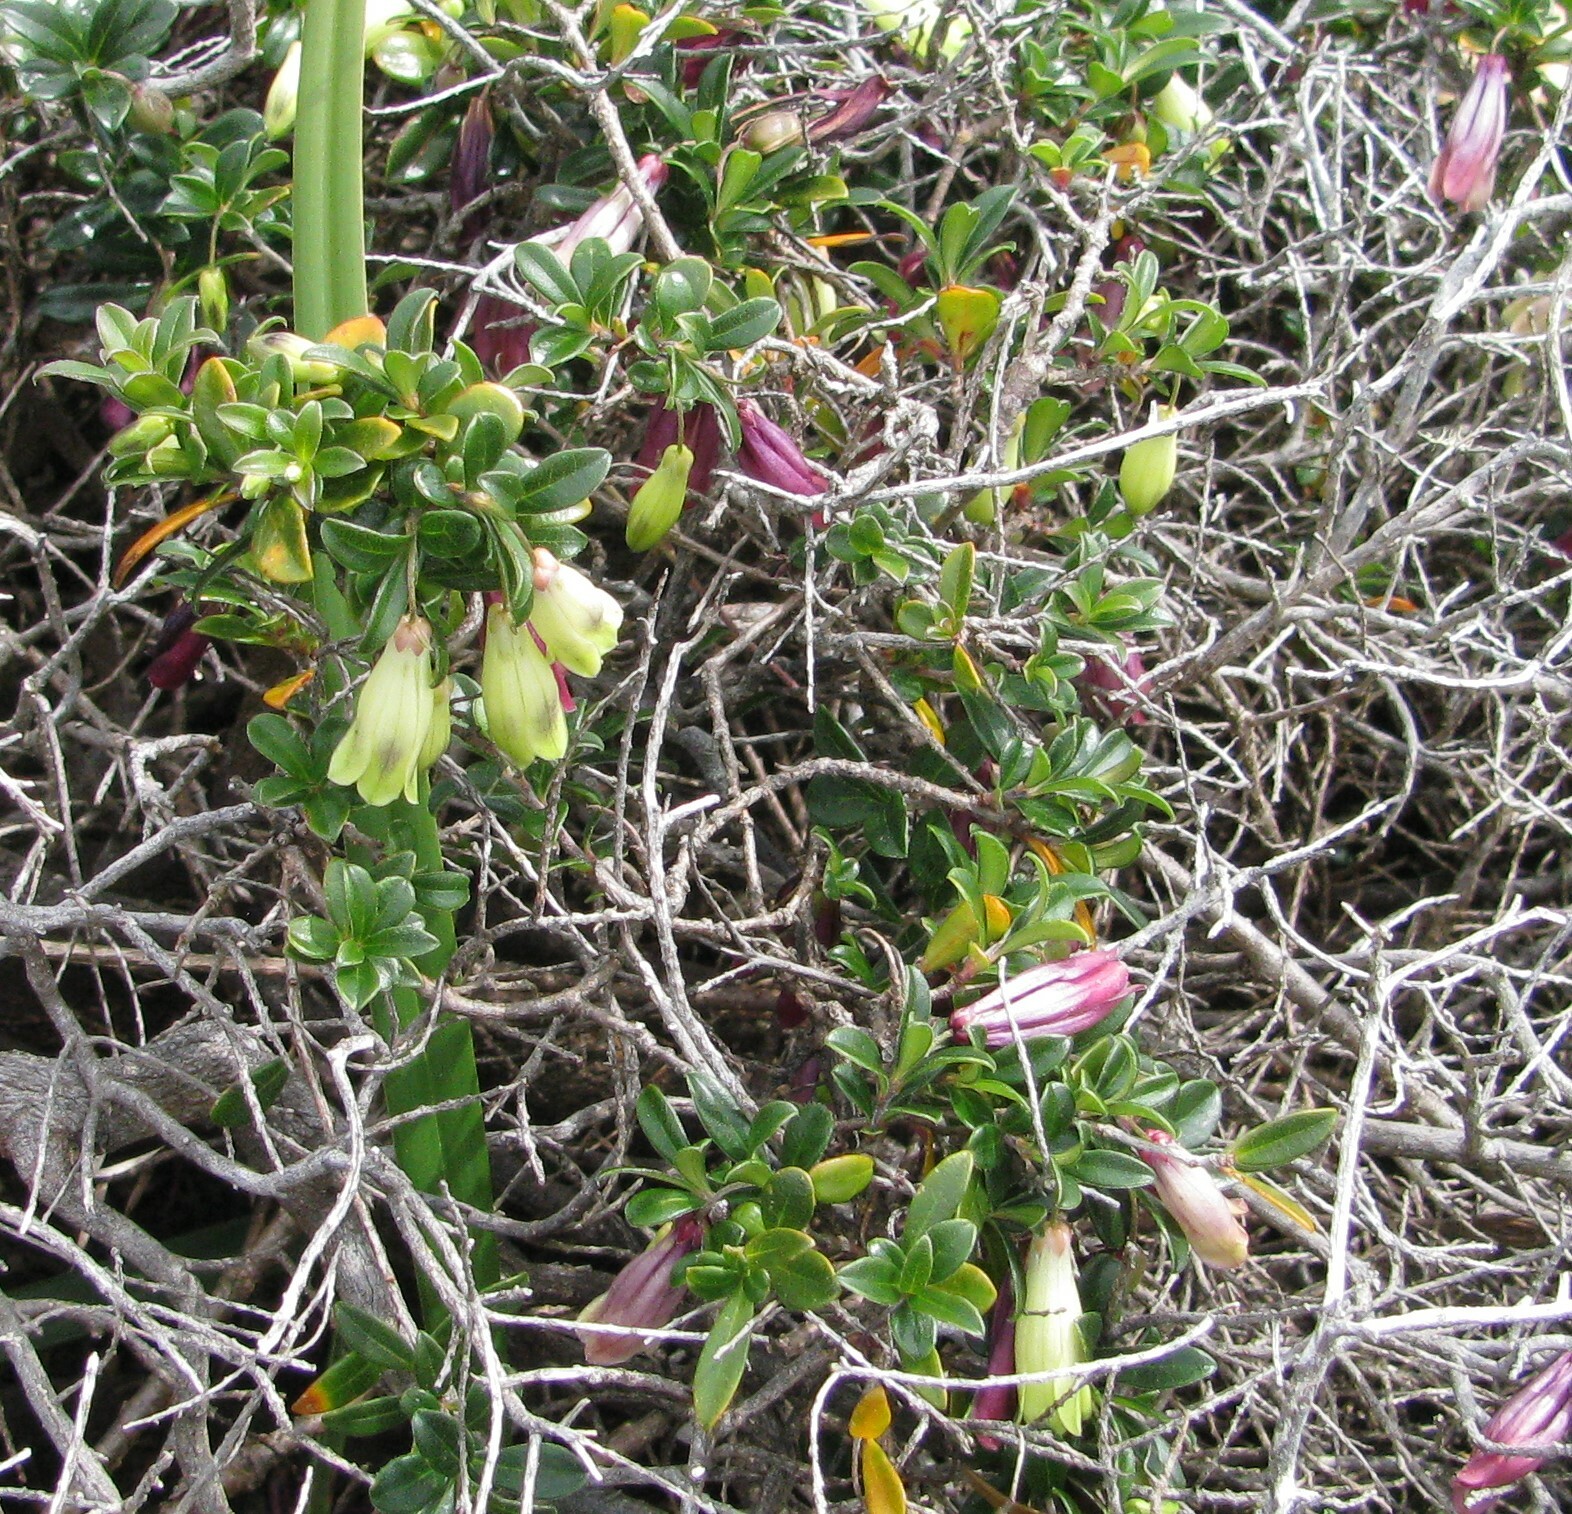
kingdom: Plantae
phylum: Tracheophyta
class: Magnoliopsida
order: Apiales
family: Pittosporaceae
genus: Billardiera
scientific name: Billardiera ovalis
